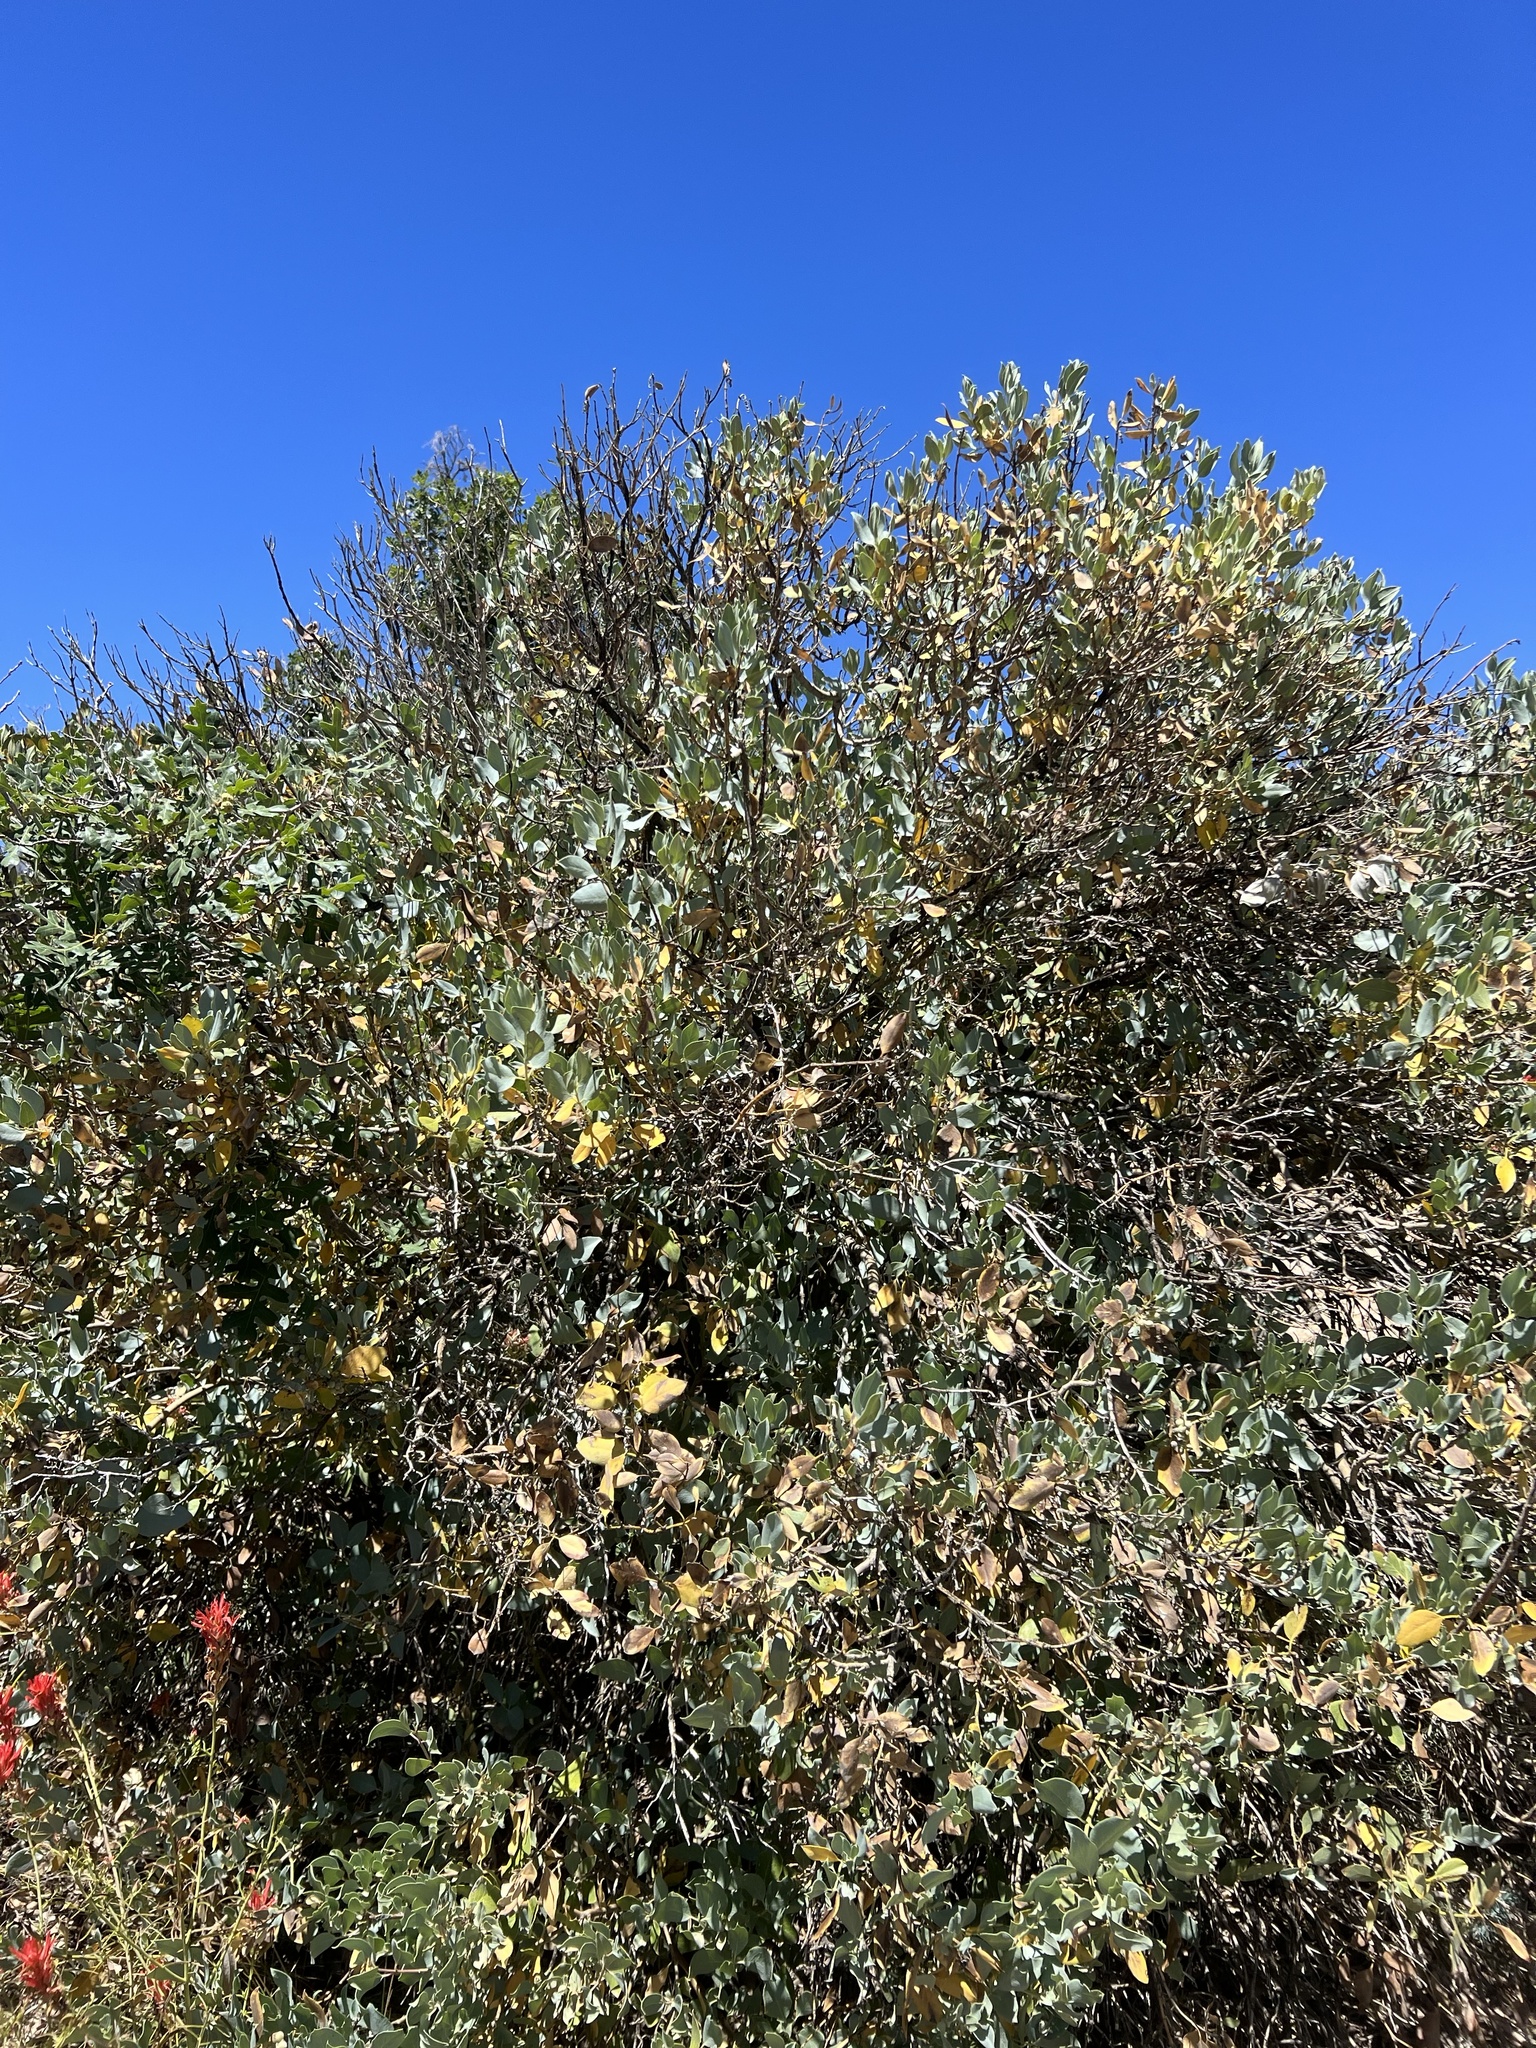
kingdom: Plantae
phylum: Tracheophyta
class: Magnoliopsida
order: Garryales
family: Garryaceae
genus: Garrya
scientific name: Garrya flavescens
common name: Ashy silk-tassel
